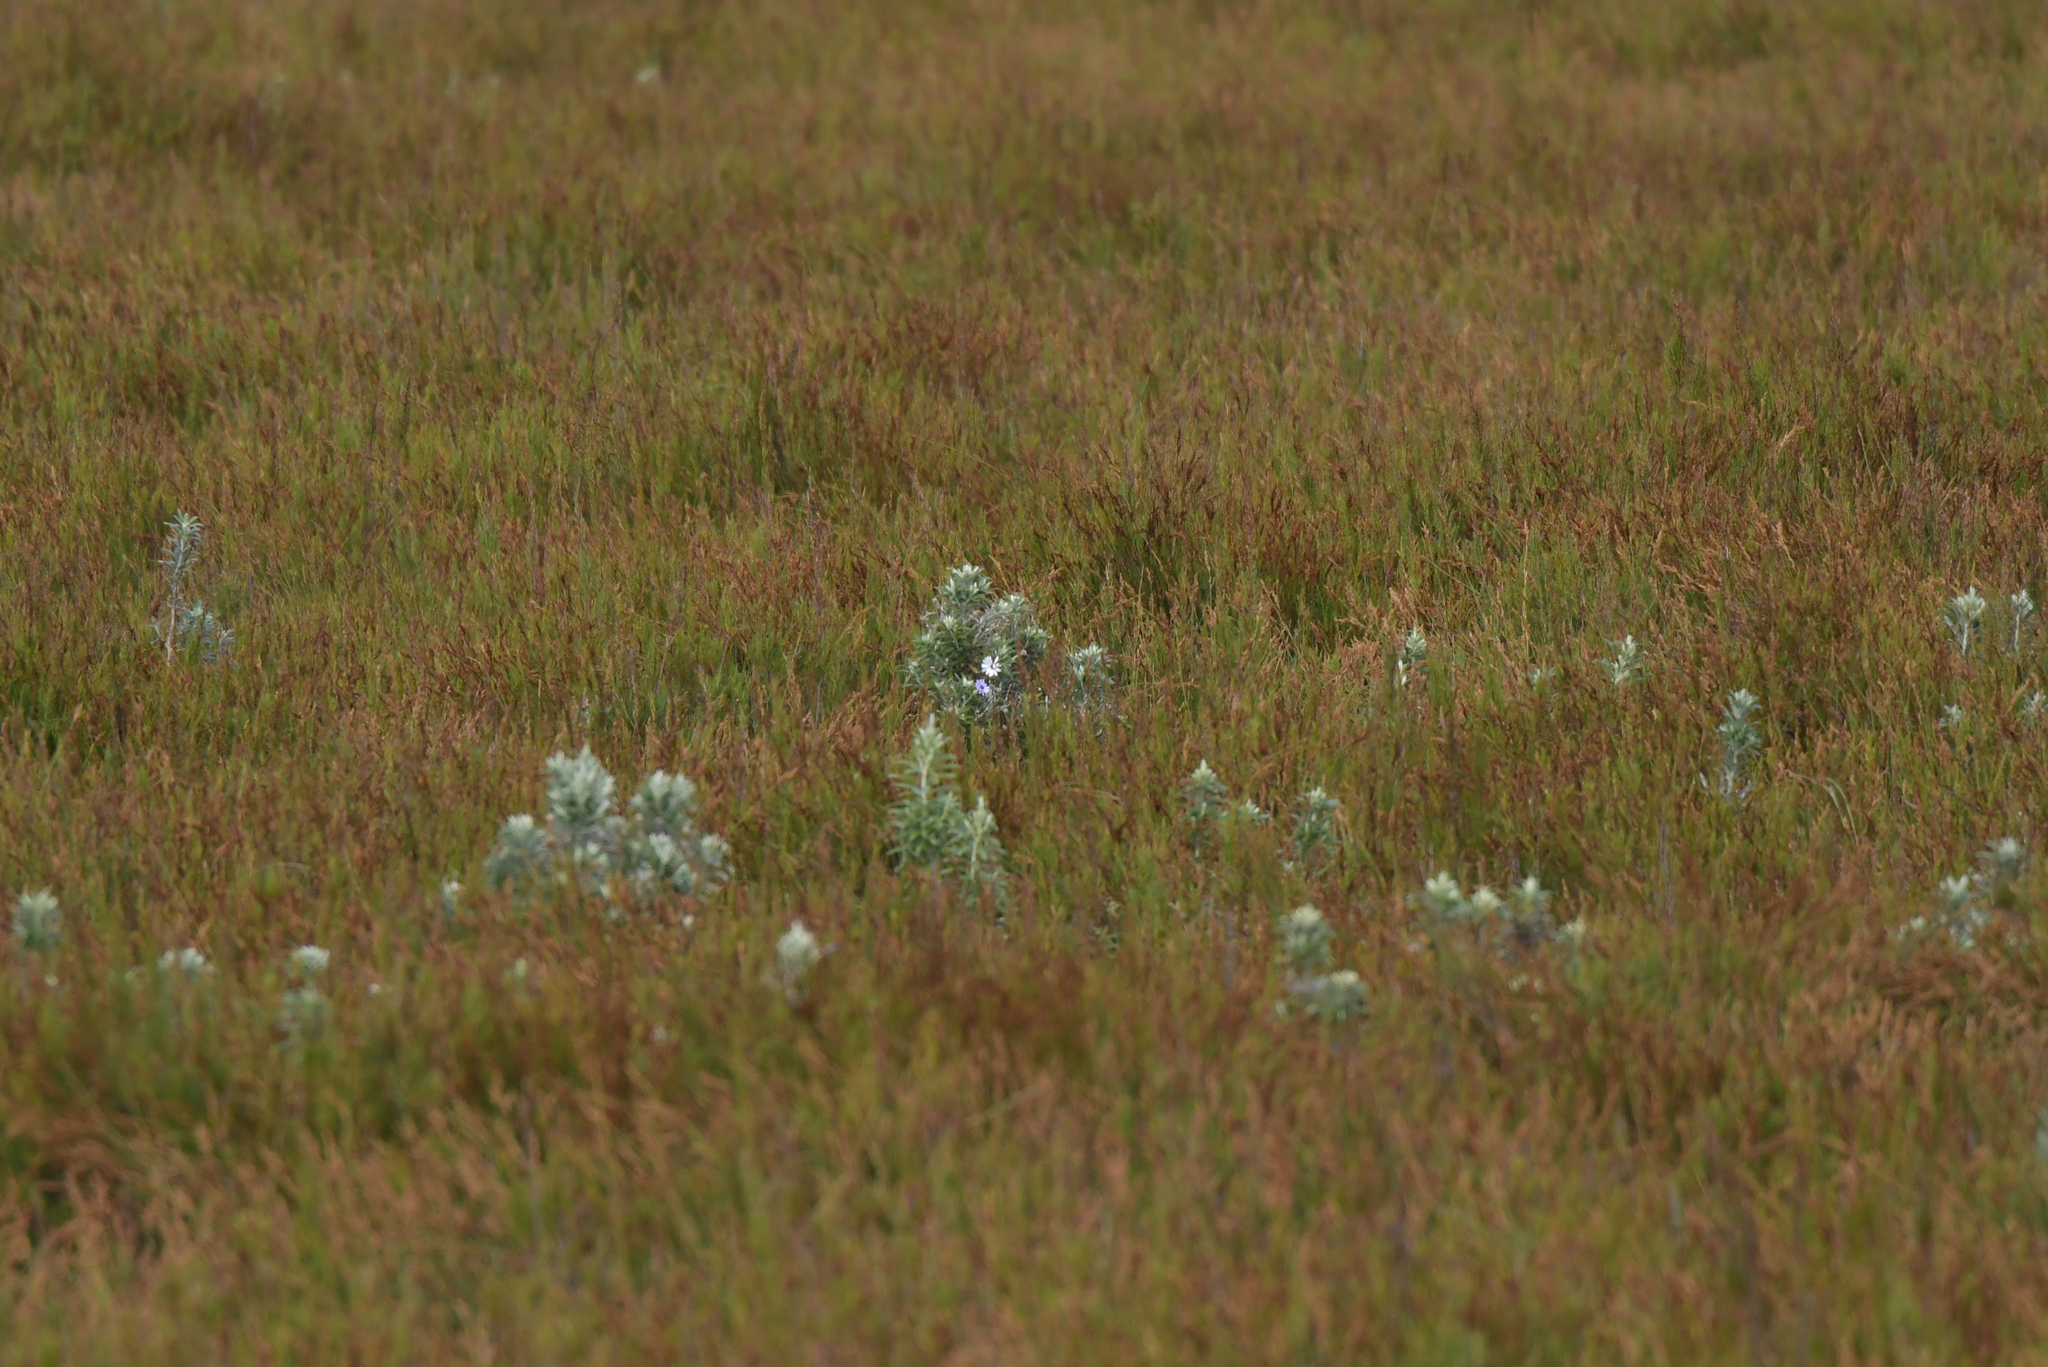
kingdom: Plantae
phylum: Tracheophyta
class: Magnoliopsida
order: Asterales
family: Asteraceae
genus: Macrolearia
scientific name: Macrolearia semidentata
